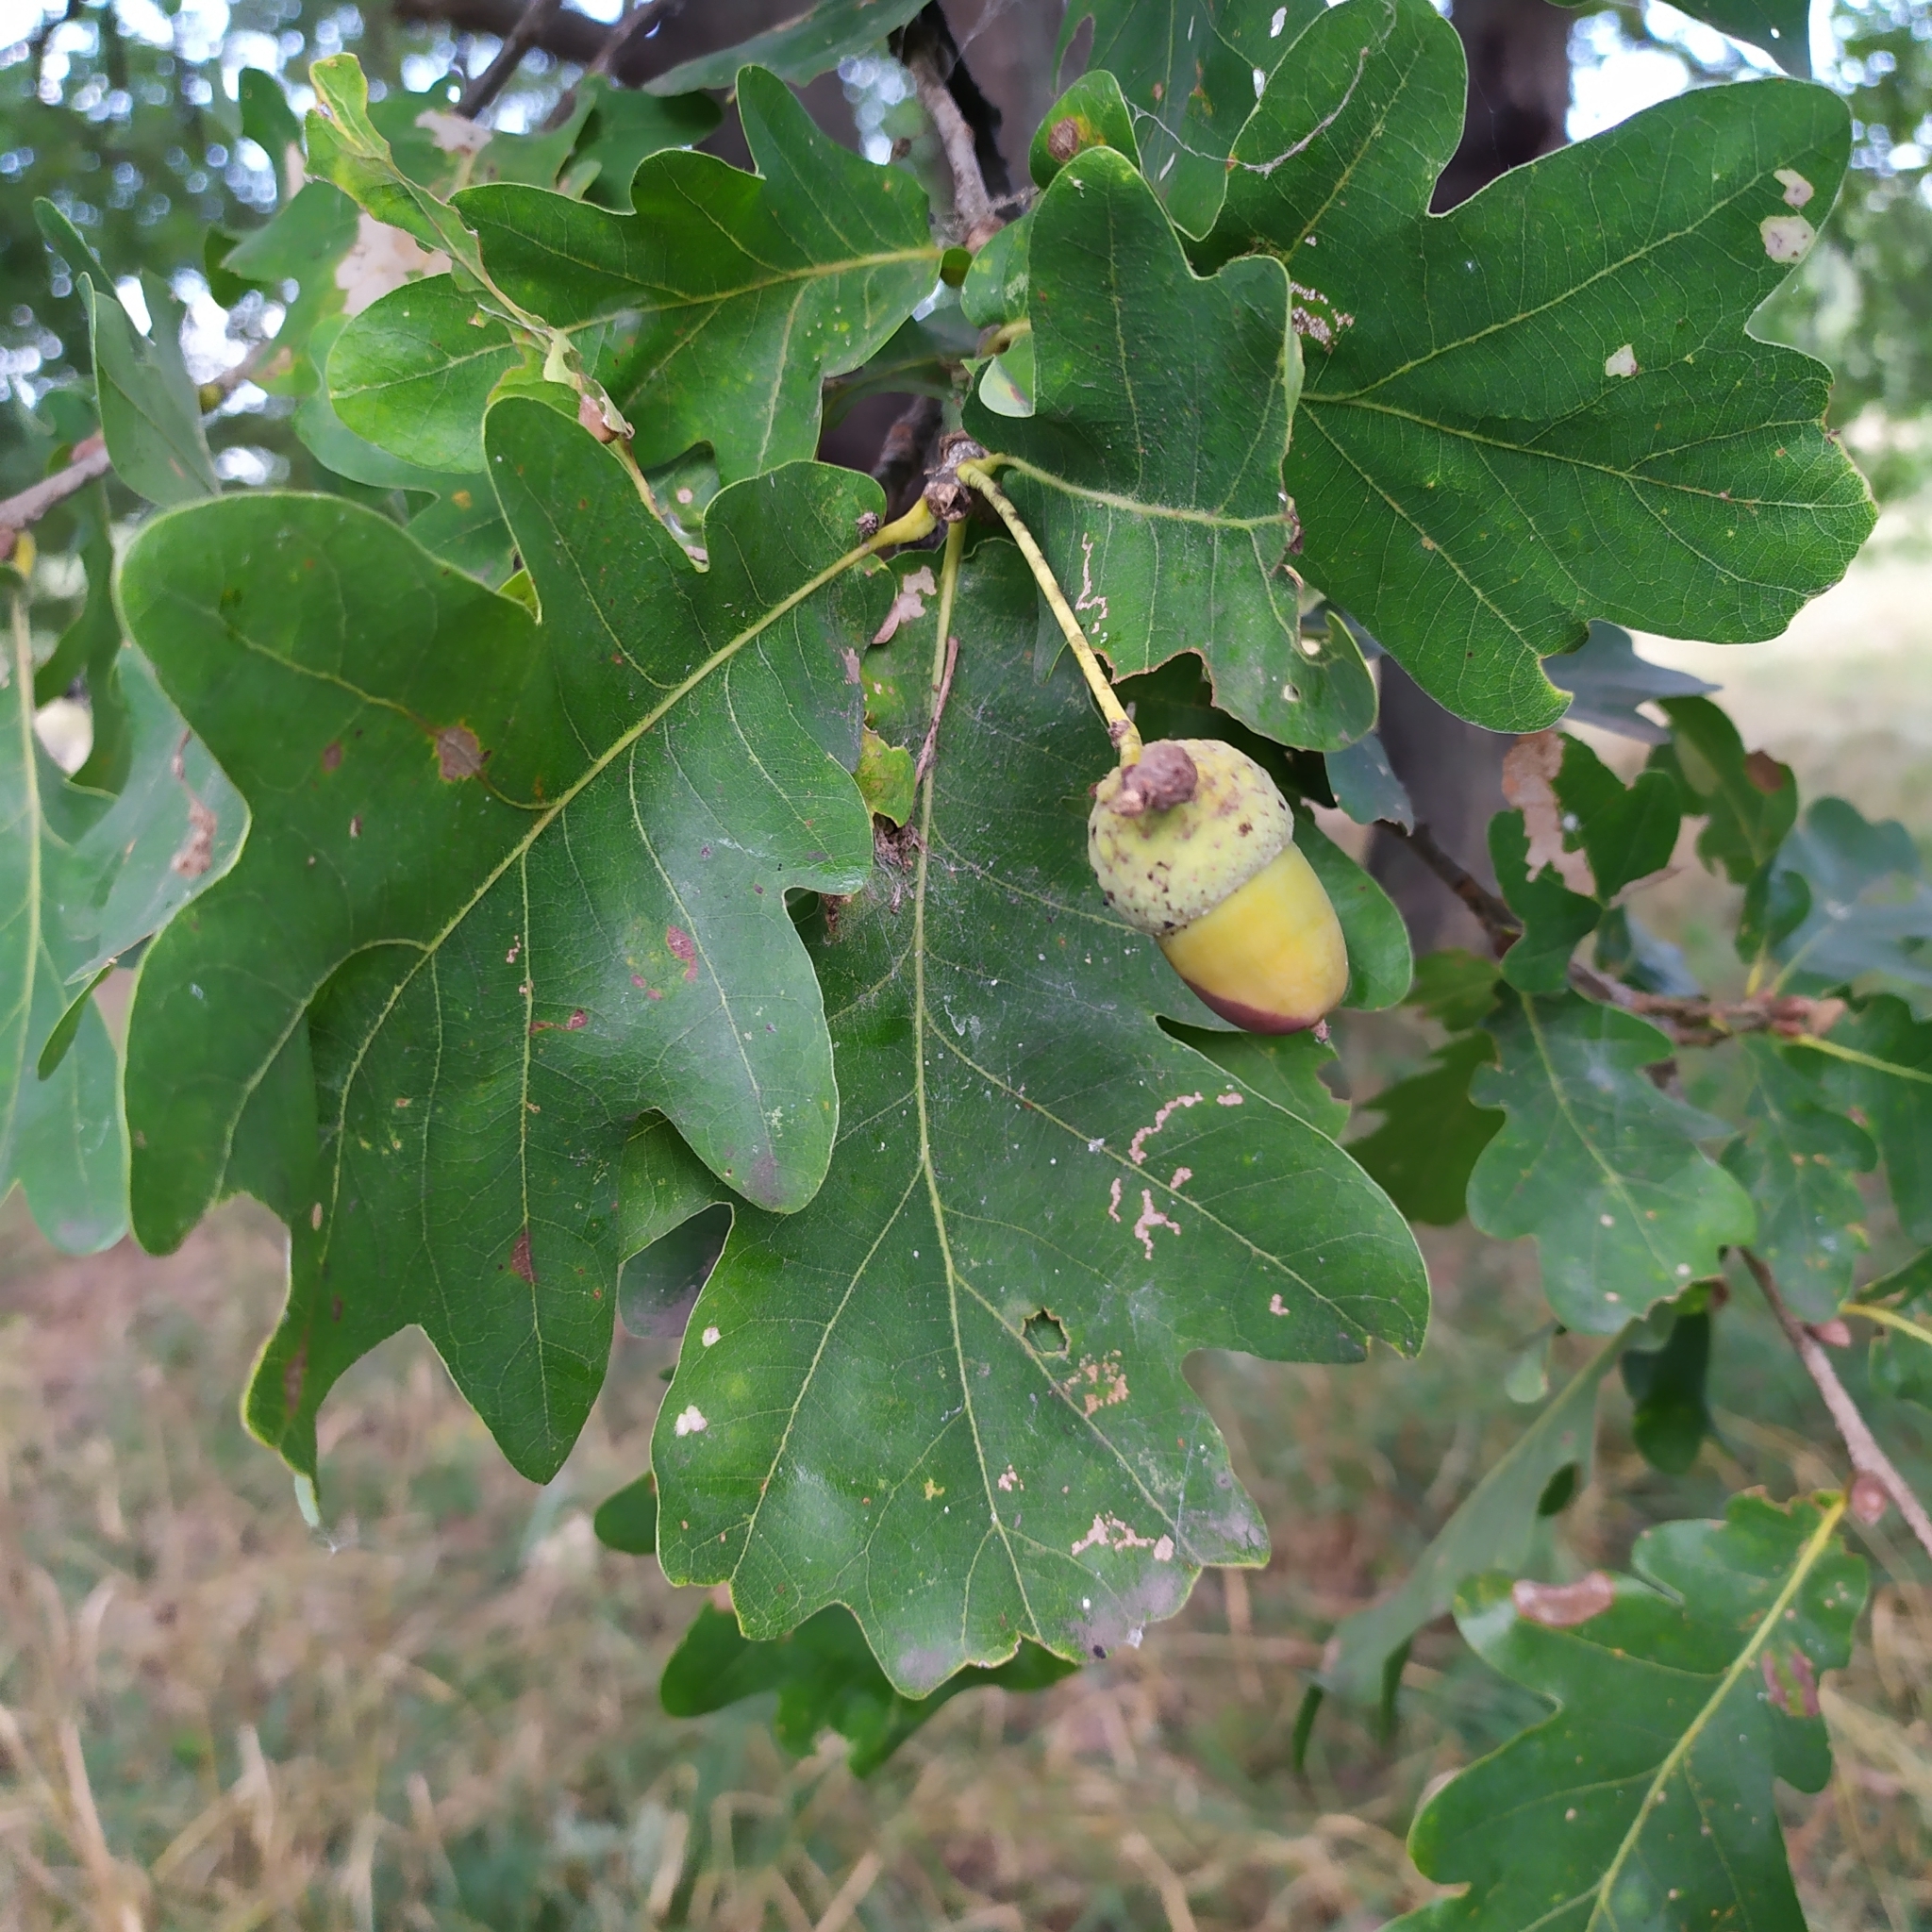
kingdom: Plantae
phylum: Tracheophyta
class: Magnoliopsida
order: Fagales
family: Fagaceae
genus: Quercus
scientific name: Quercus robur
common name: Pedunculate oak
